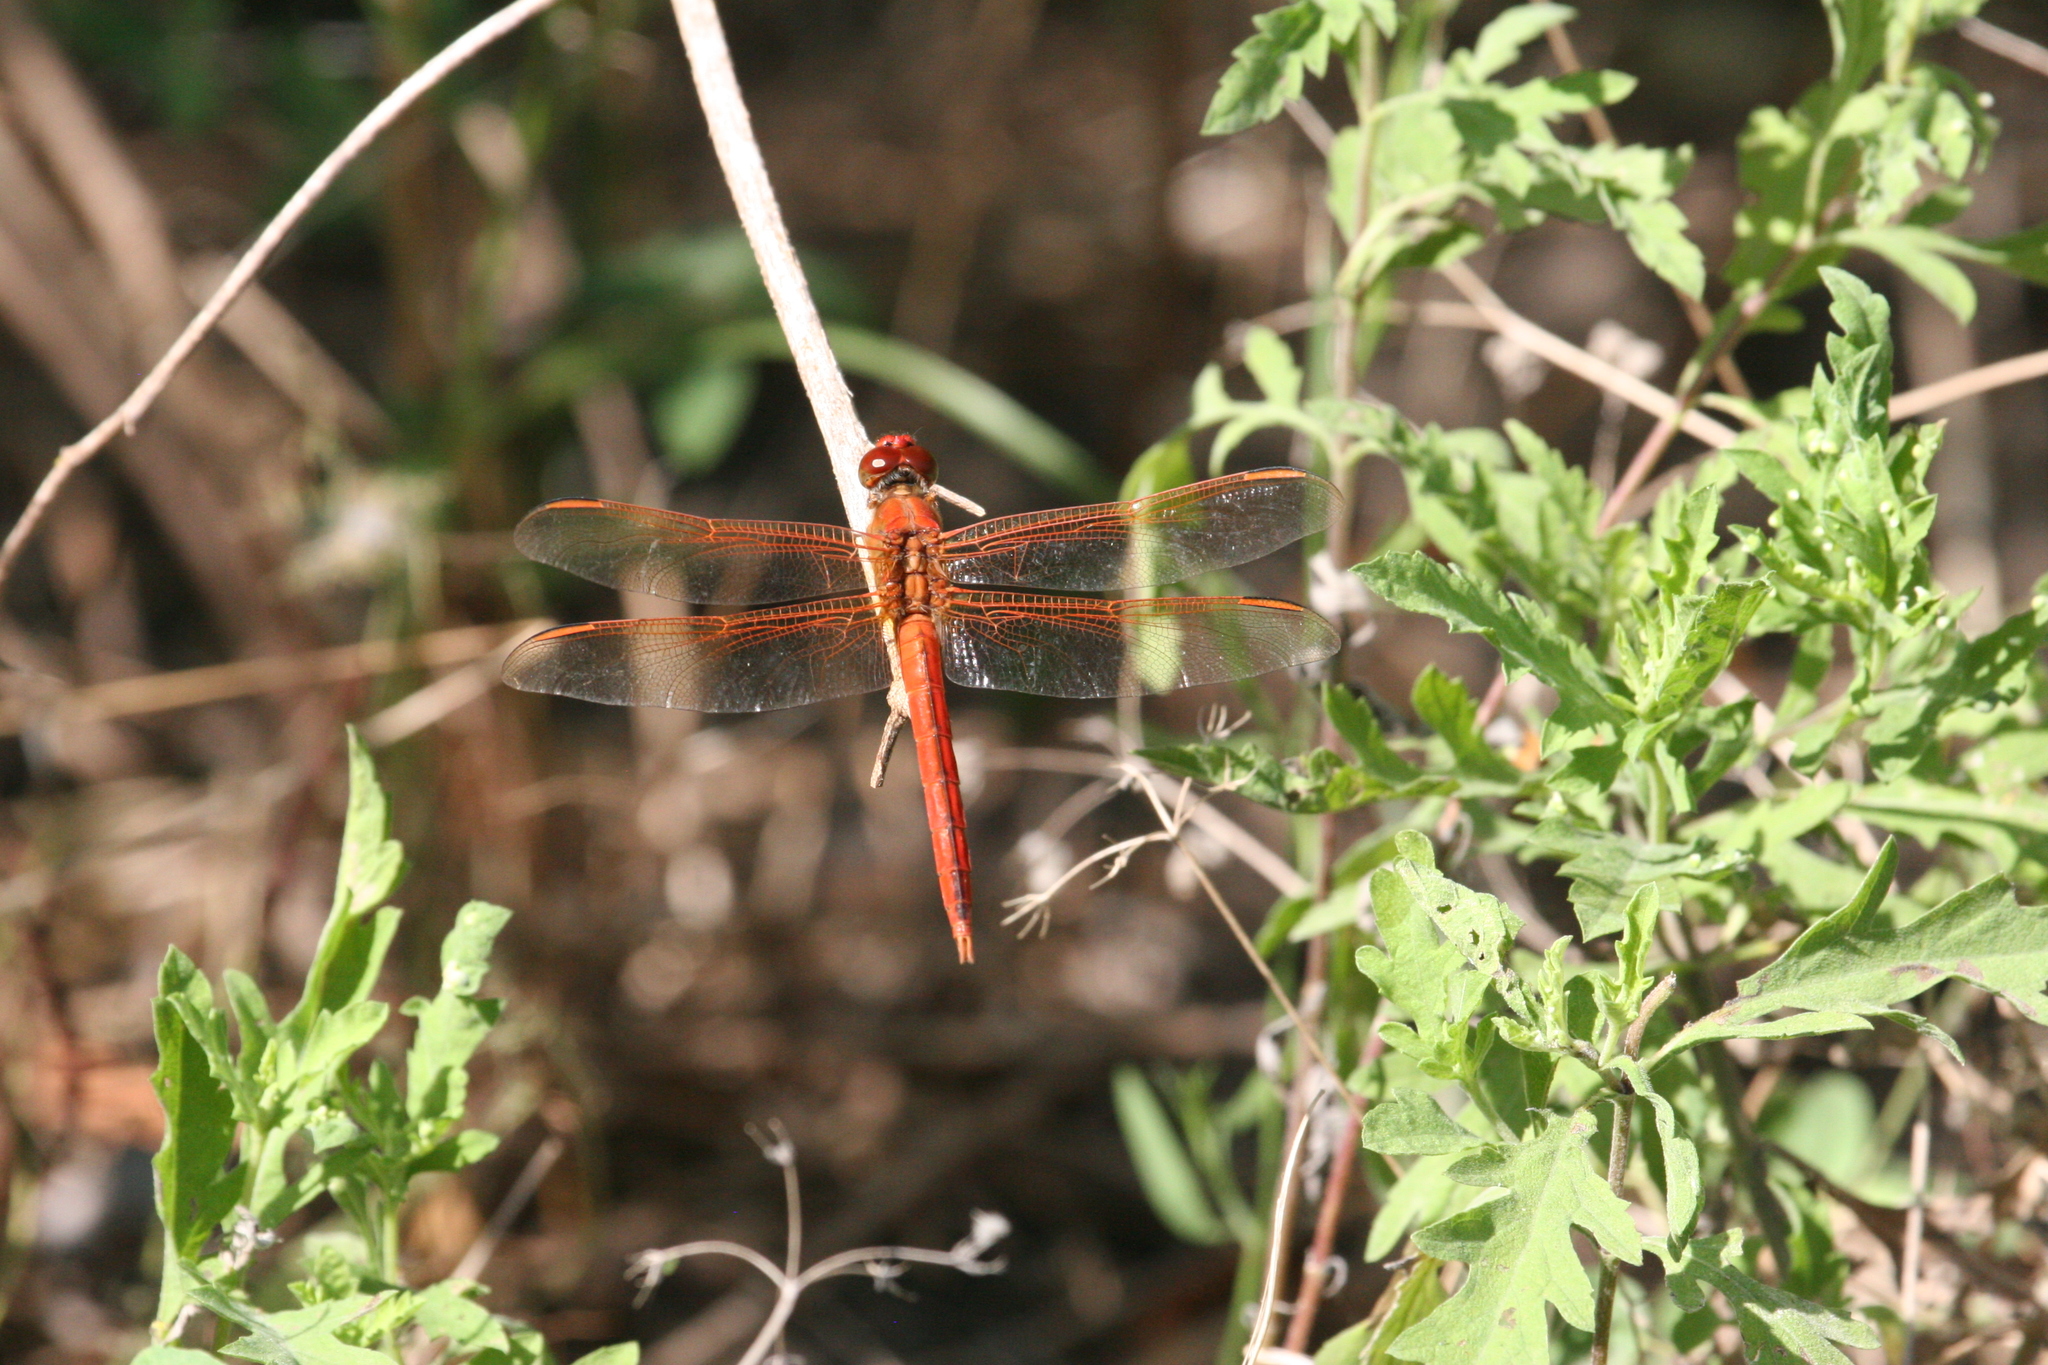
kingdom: Animalia
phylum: Arthropoda
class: Insecta
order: Odonata
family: Libellulidae
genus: Libellula
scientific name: Libellula needhami
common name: Needham's skimmer
